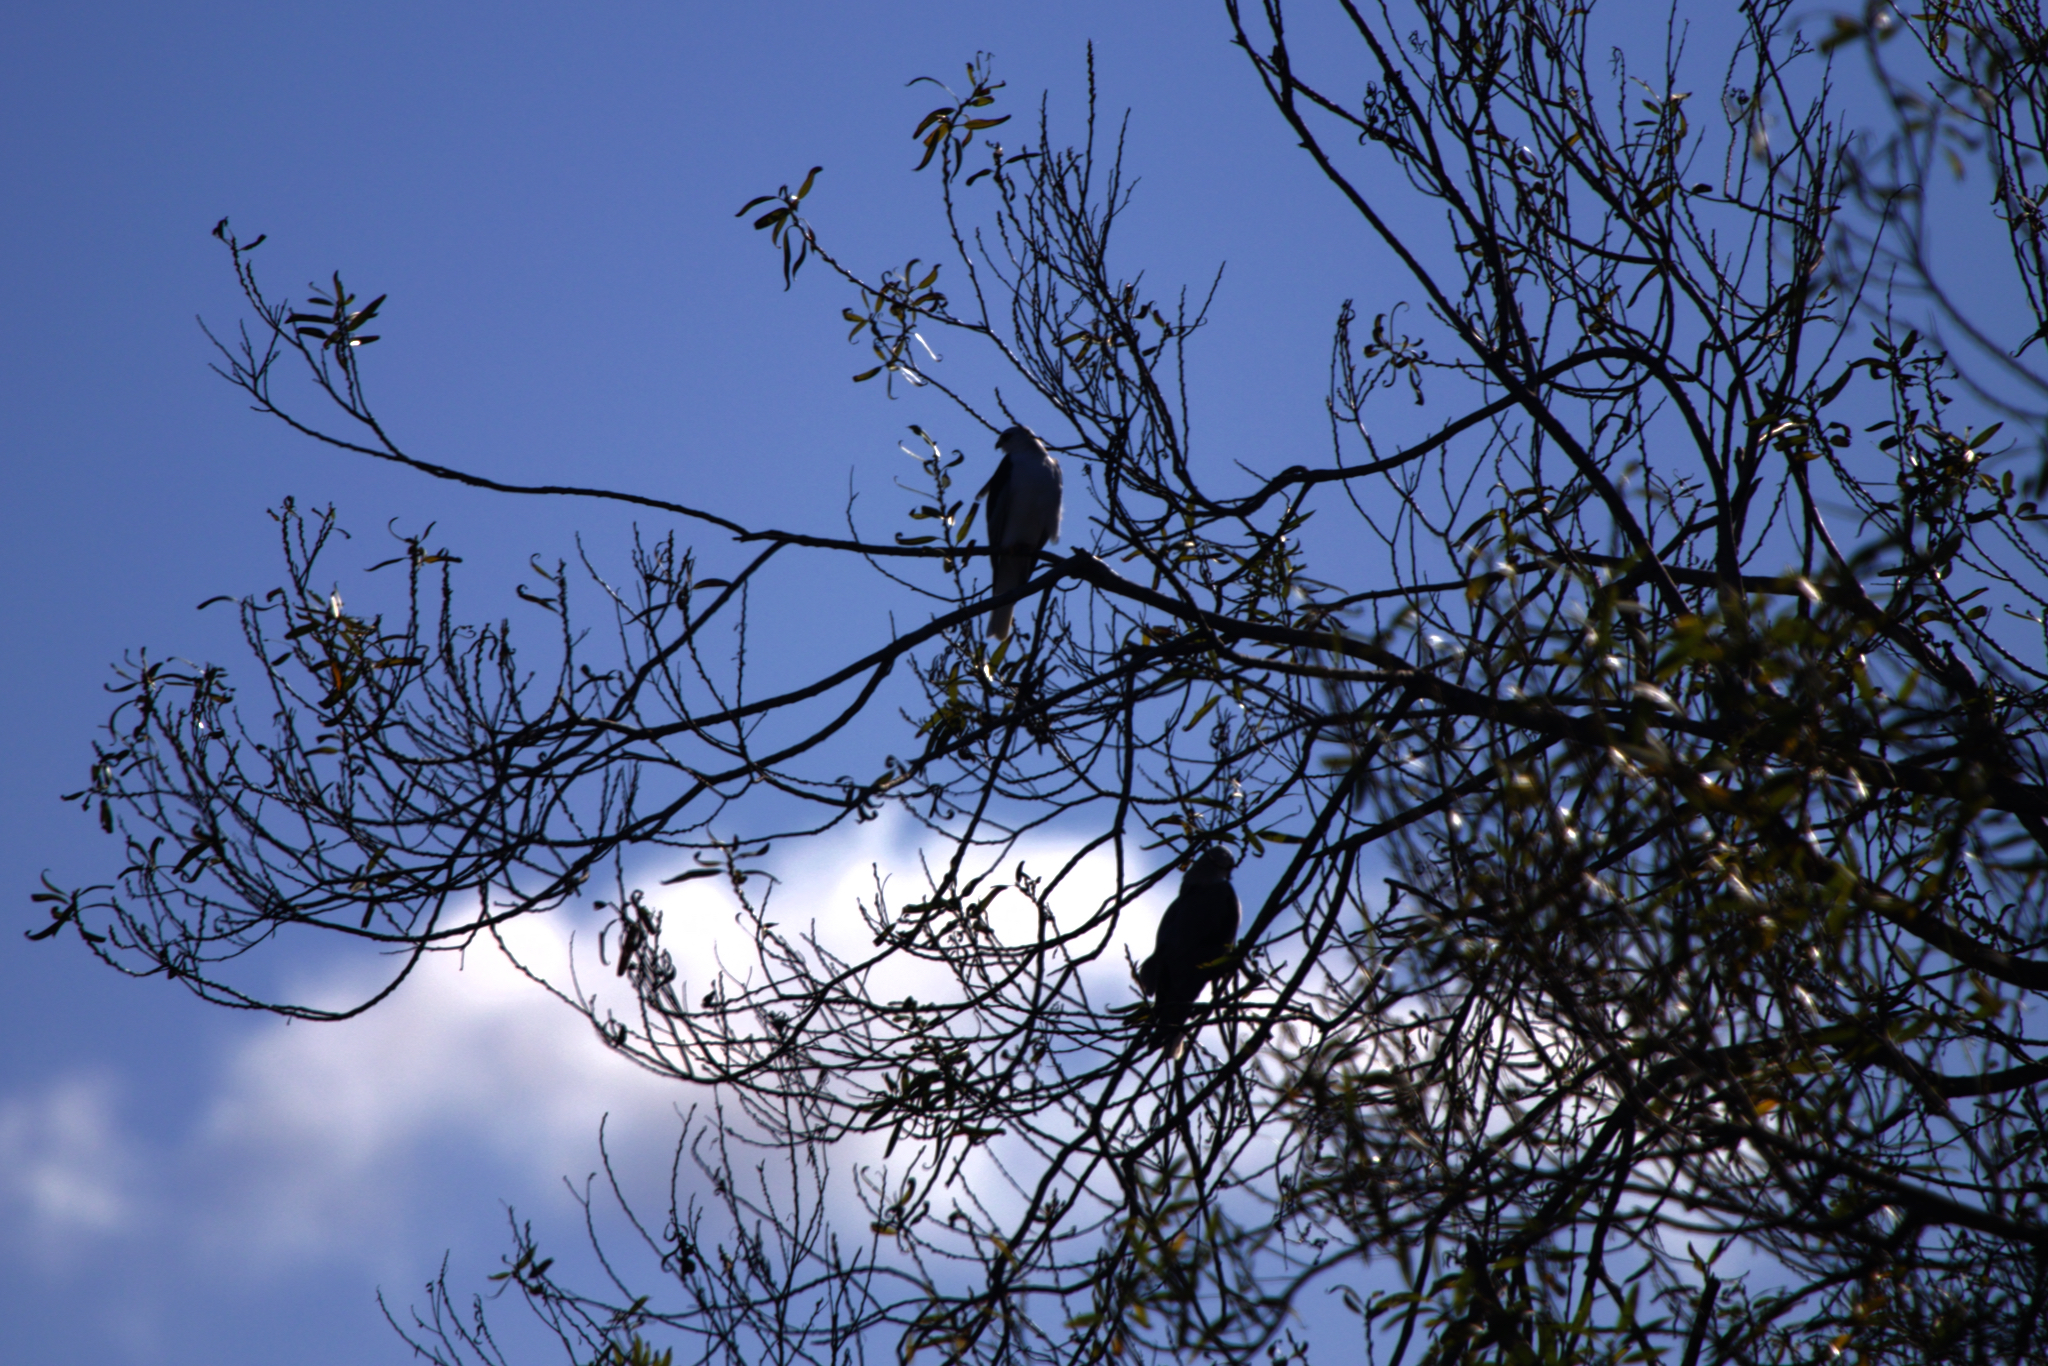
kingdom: Animalia
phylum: Chordata
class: Aves
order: Accipitriformes
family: Accipitridae
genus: Elanus
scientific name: Elanus leucurus
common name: White-tailed kite
